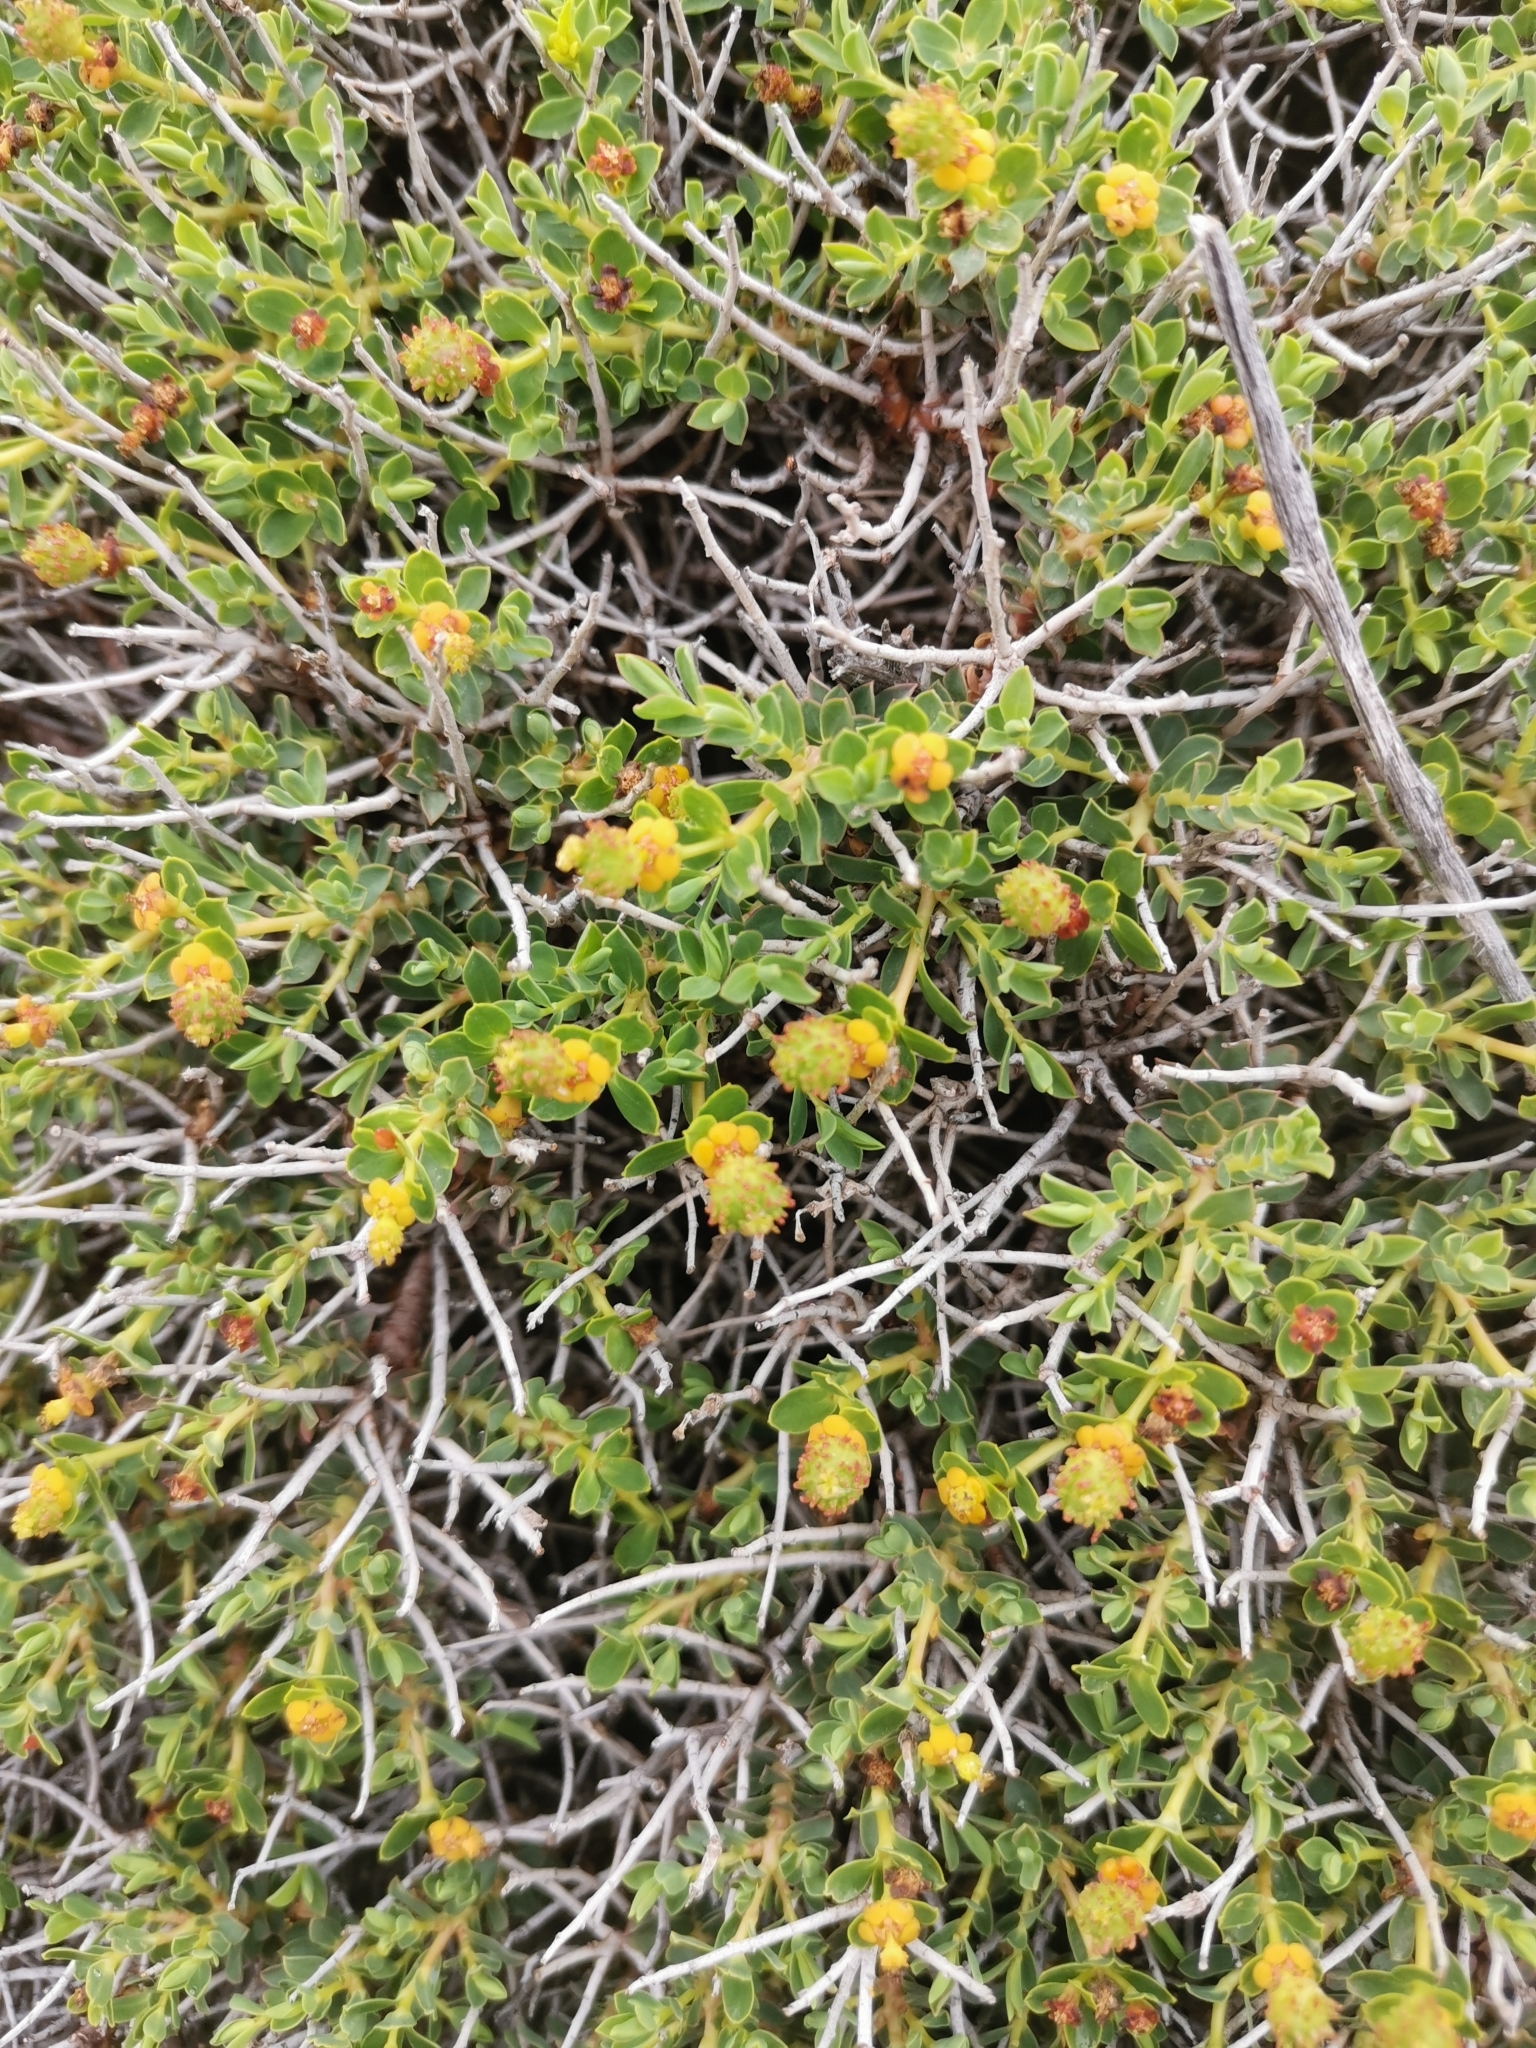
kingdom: Plantae
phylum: Tracheophyta
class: Magnoliopsida
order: Malpighiales
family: Euphorbiaceae
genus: Euphorbia
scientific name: Euphorbia spinosa
